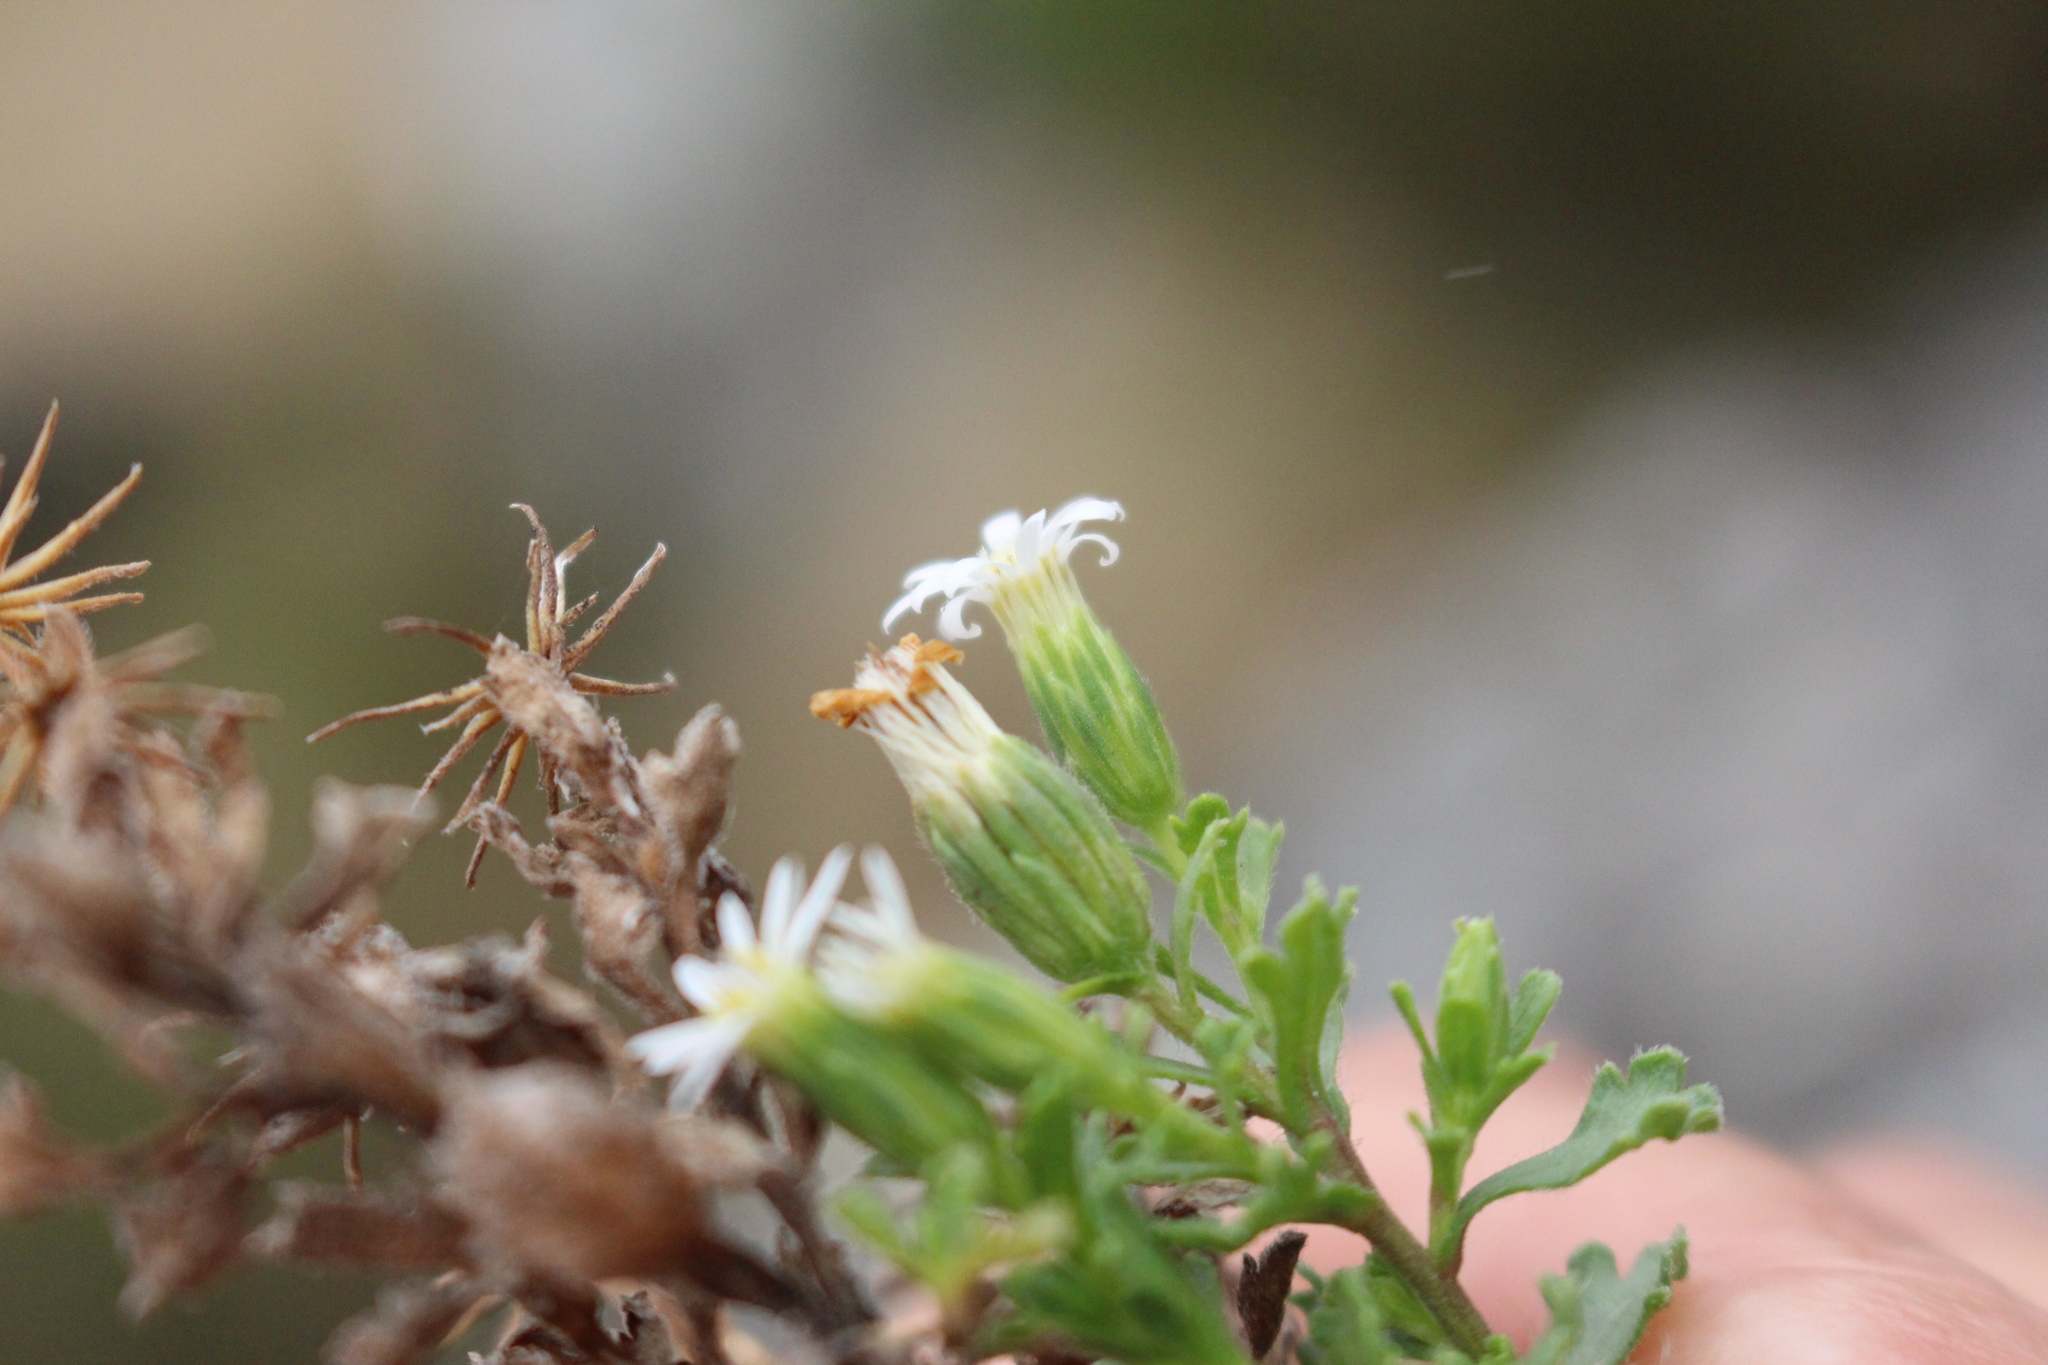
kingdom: Plantae
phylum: Tracheophyta
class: Magnoliopsida
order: Asterales
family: Asteraceae
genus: Vittadinia
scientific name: Vittadinia australis
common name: White fuzzweed
